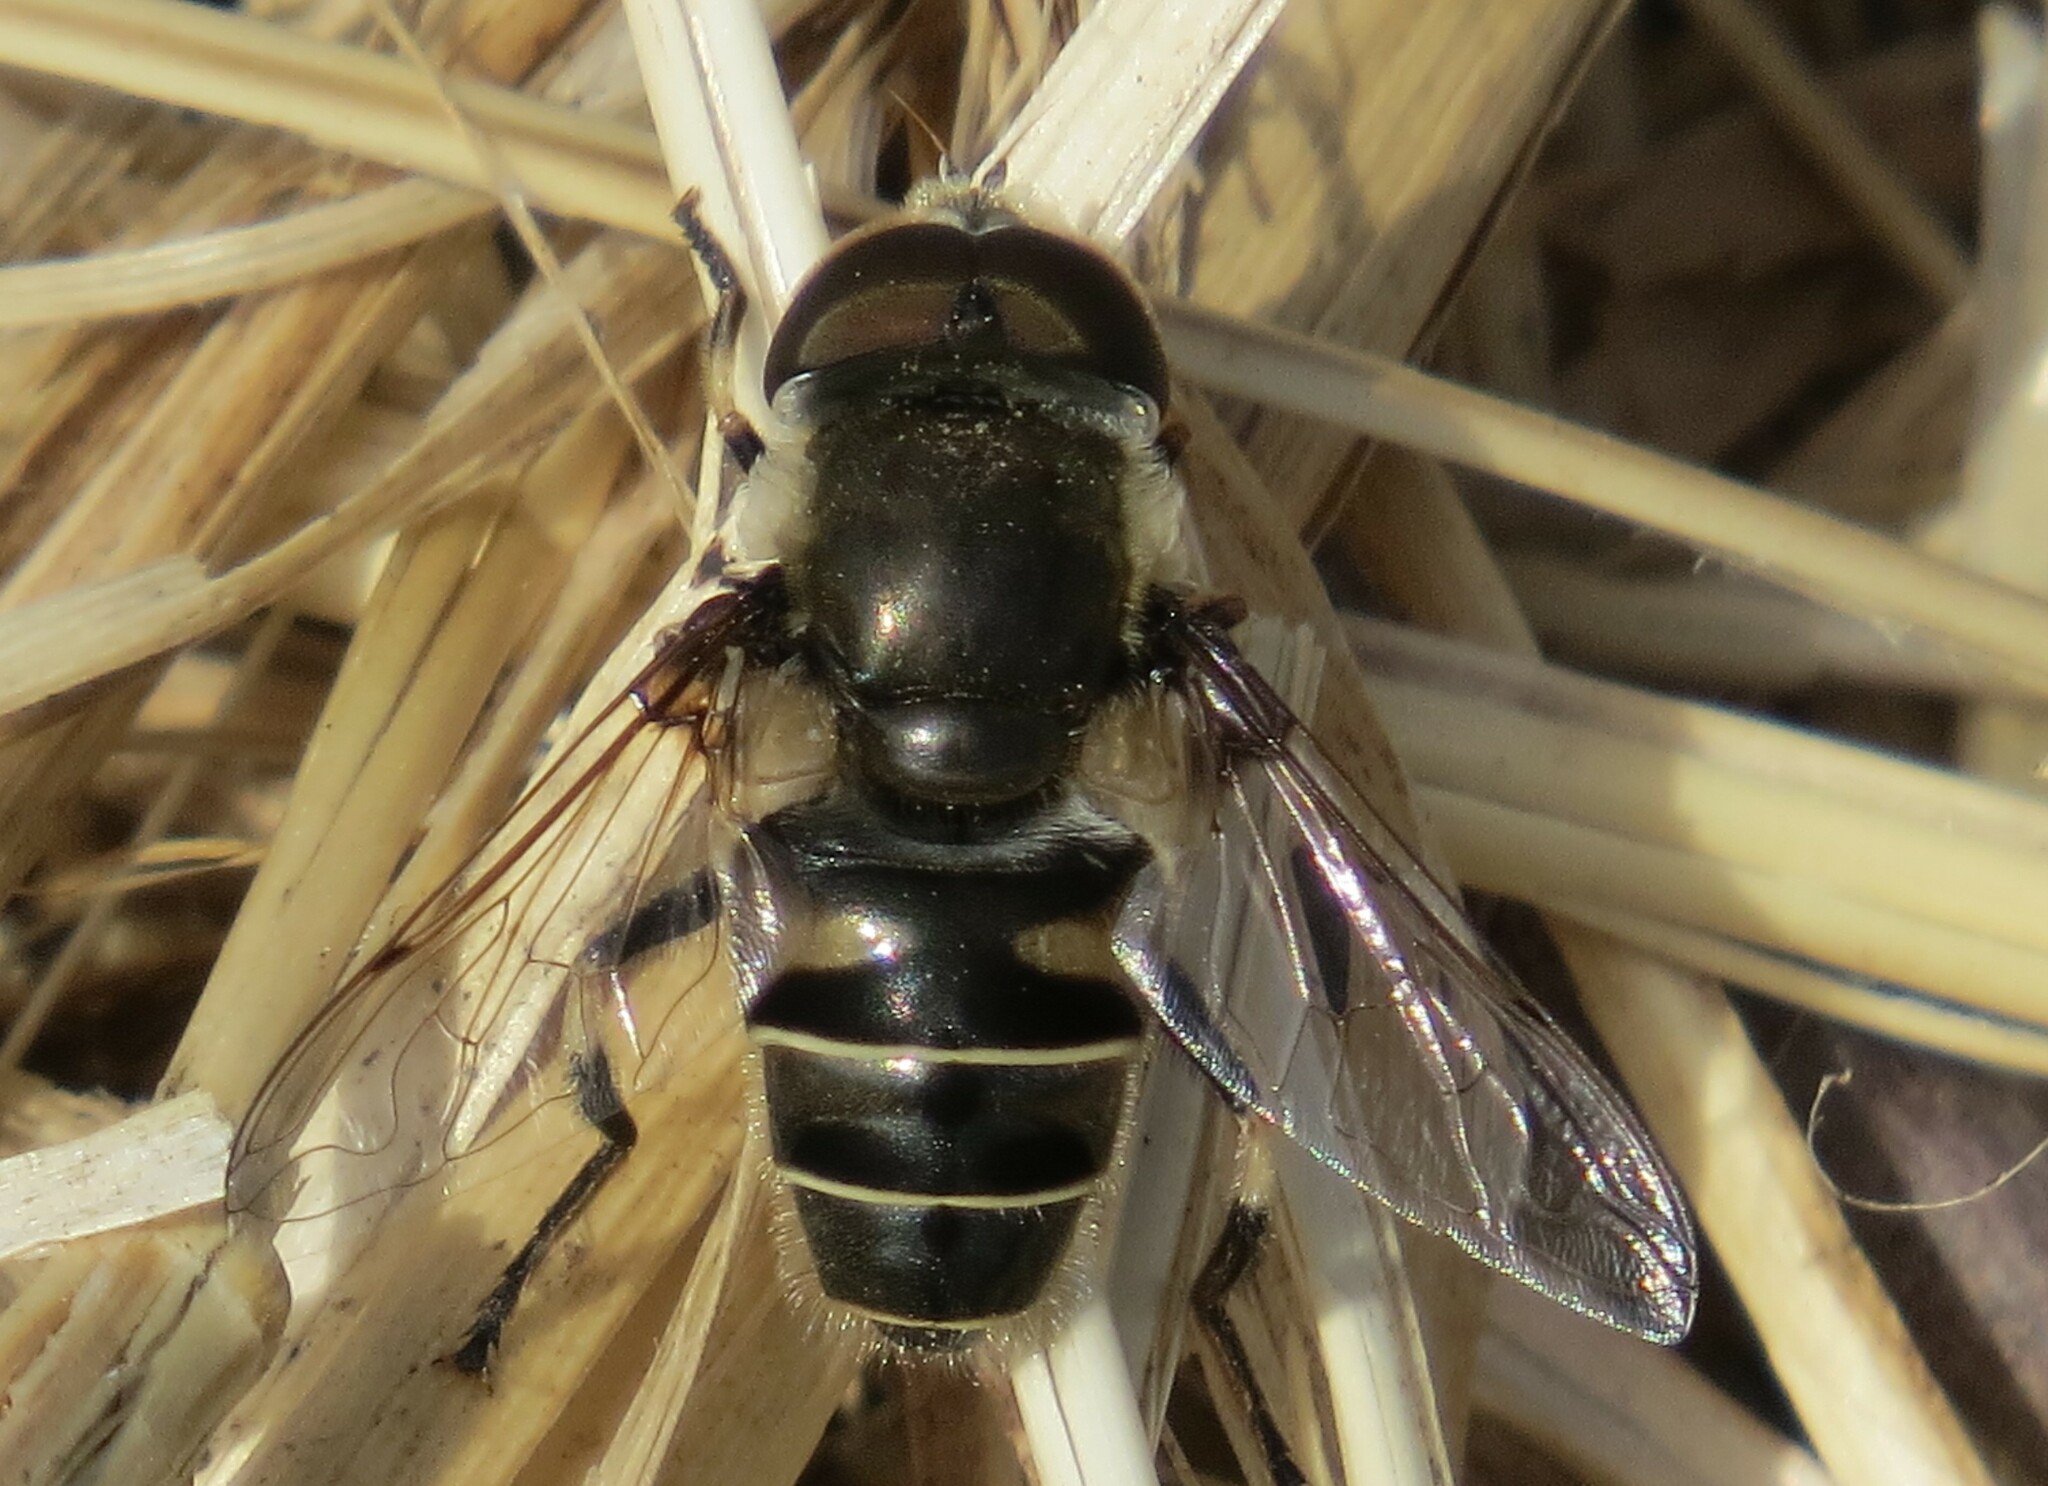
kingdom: Animalia
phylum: Arthropoda
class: Insecta
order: Diptera
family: Syrphidae
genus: Eristalis
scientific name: Eristalis dimidiata
